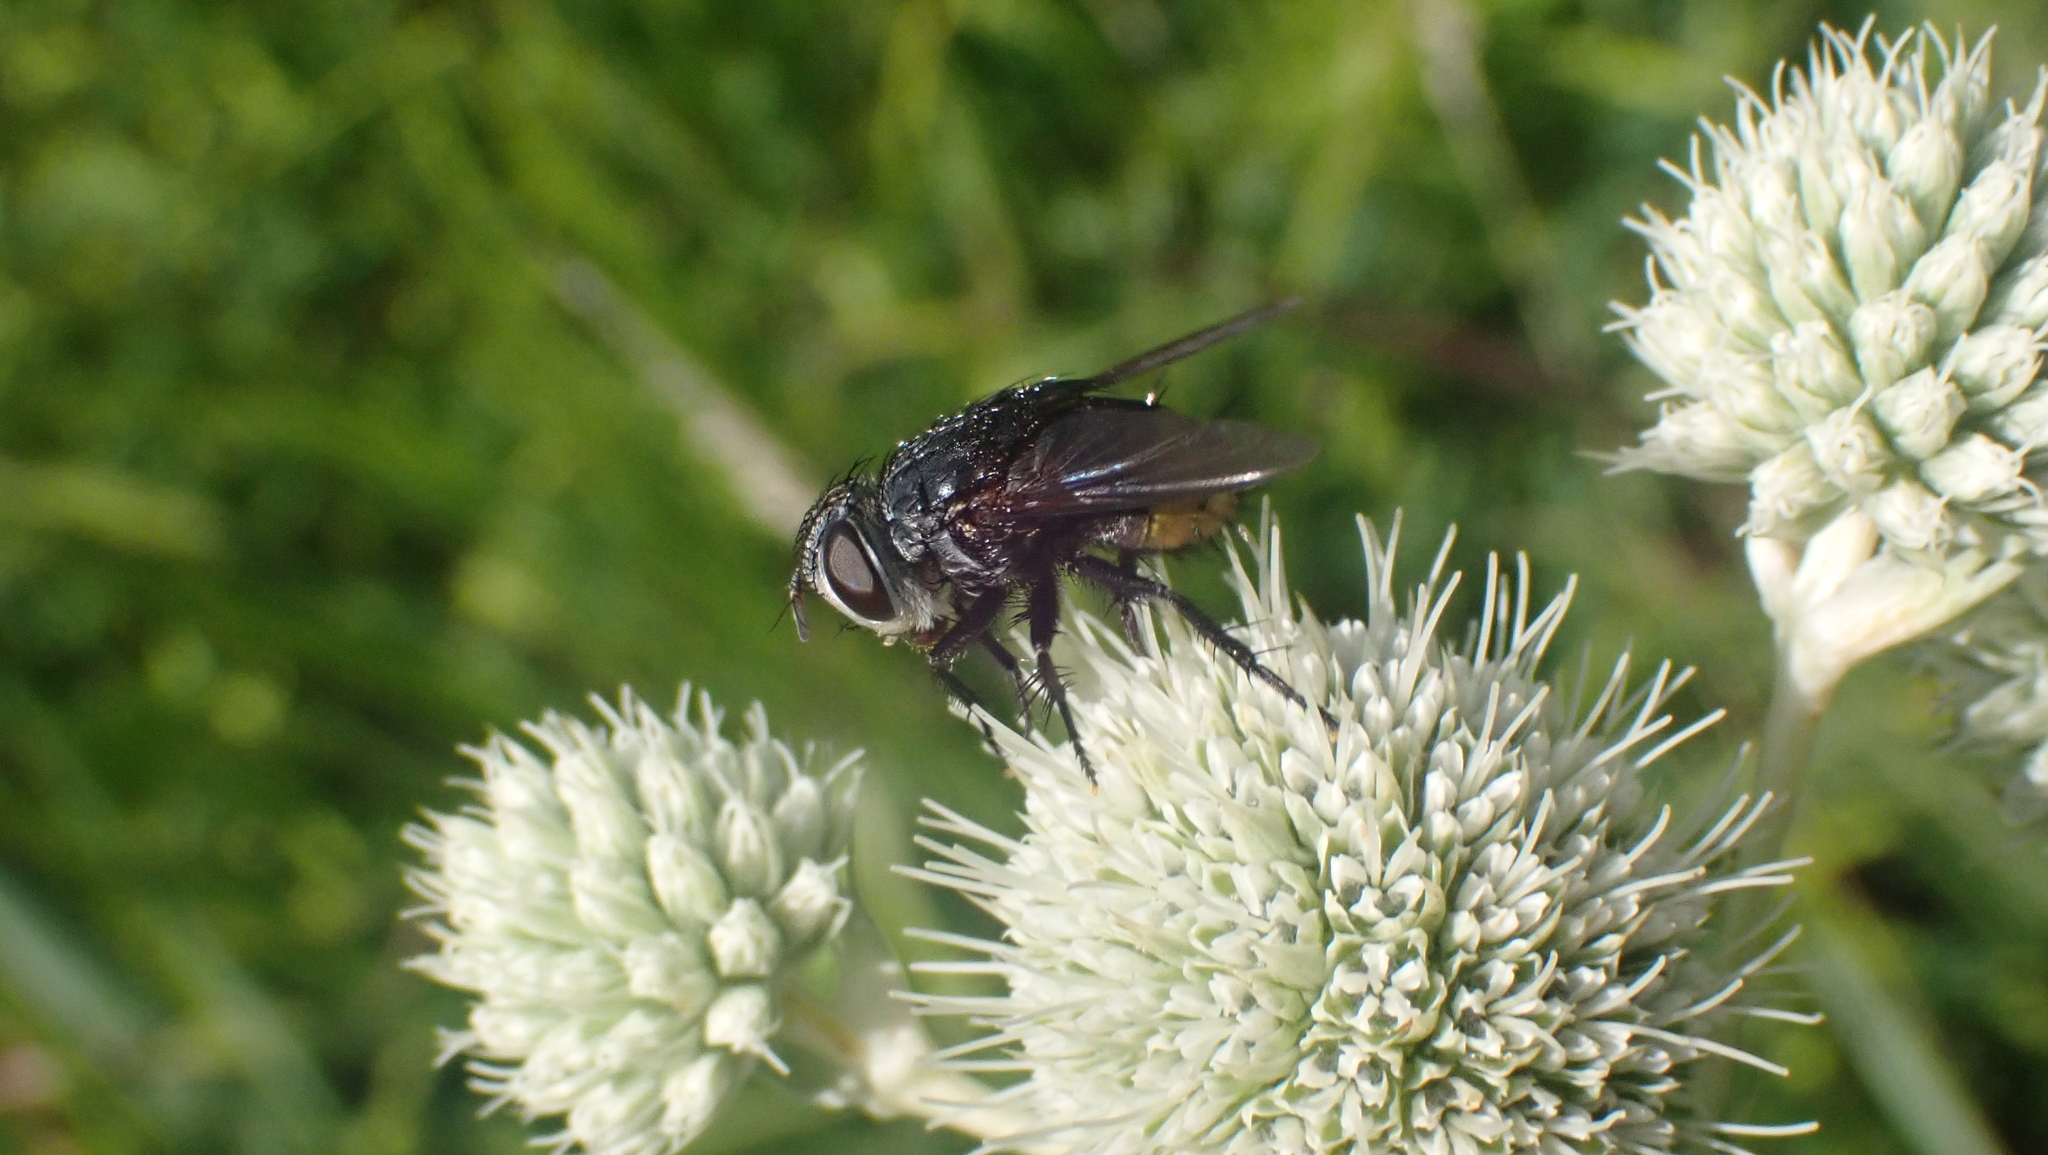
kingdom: Animalia
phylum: Arthropoda
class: Insecta
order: Diptera
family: Tachinidae
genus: Belvosia
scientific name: Belvosia borealis
